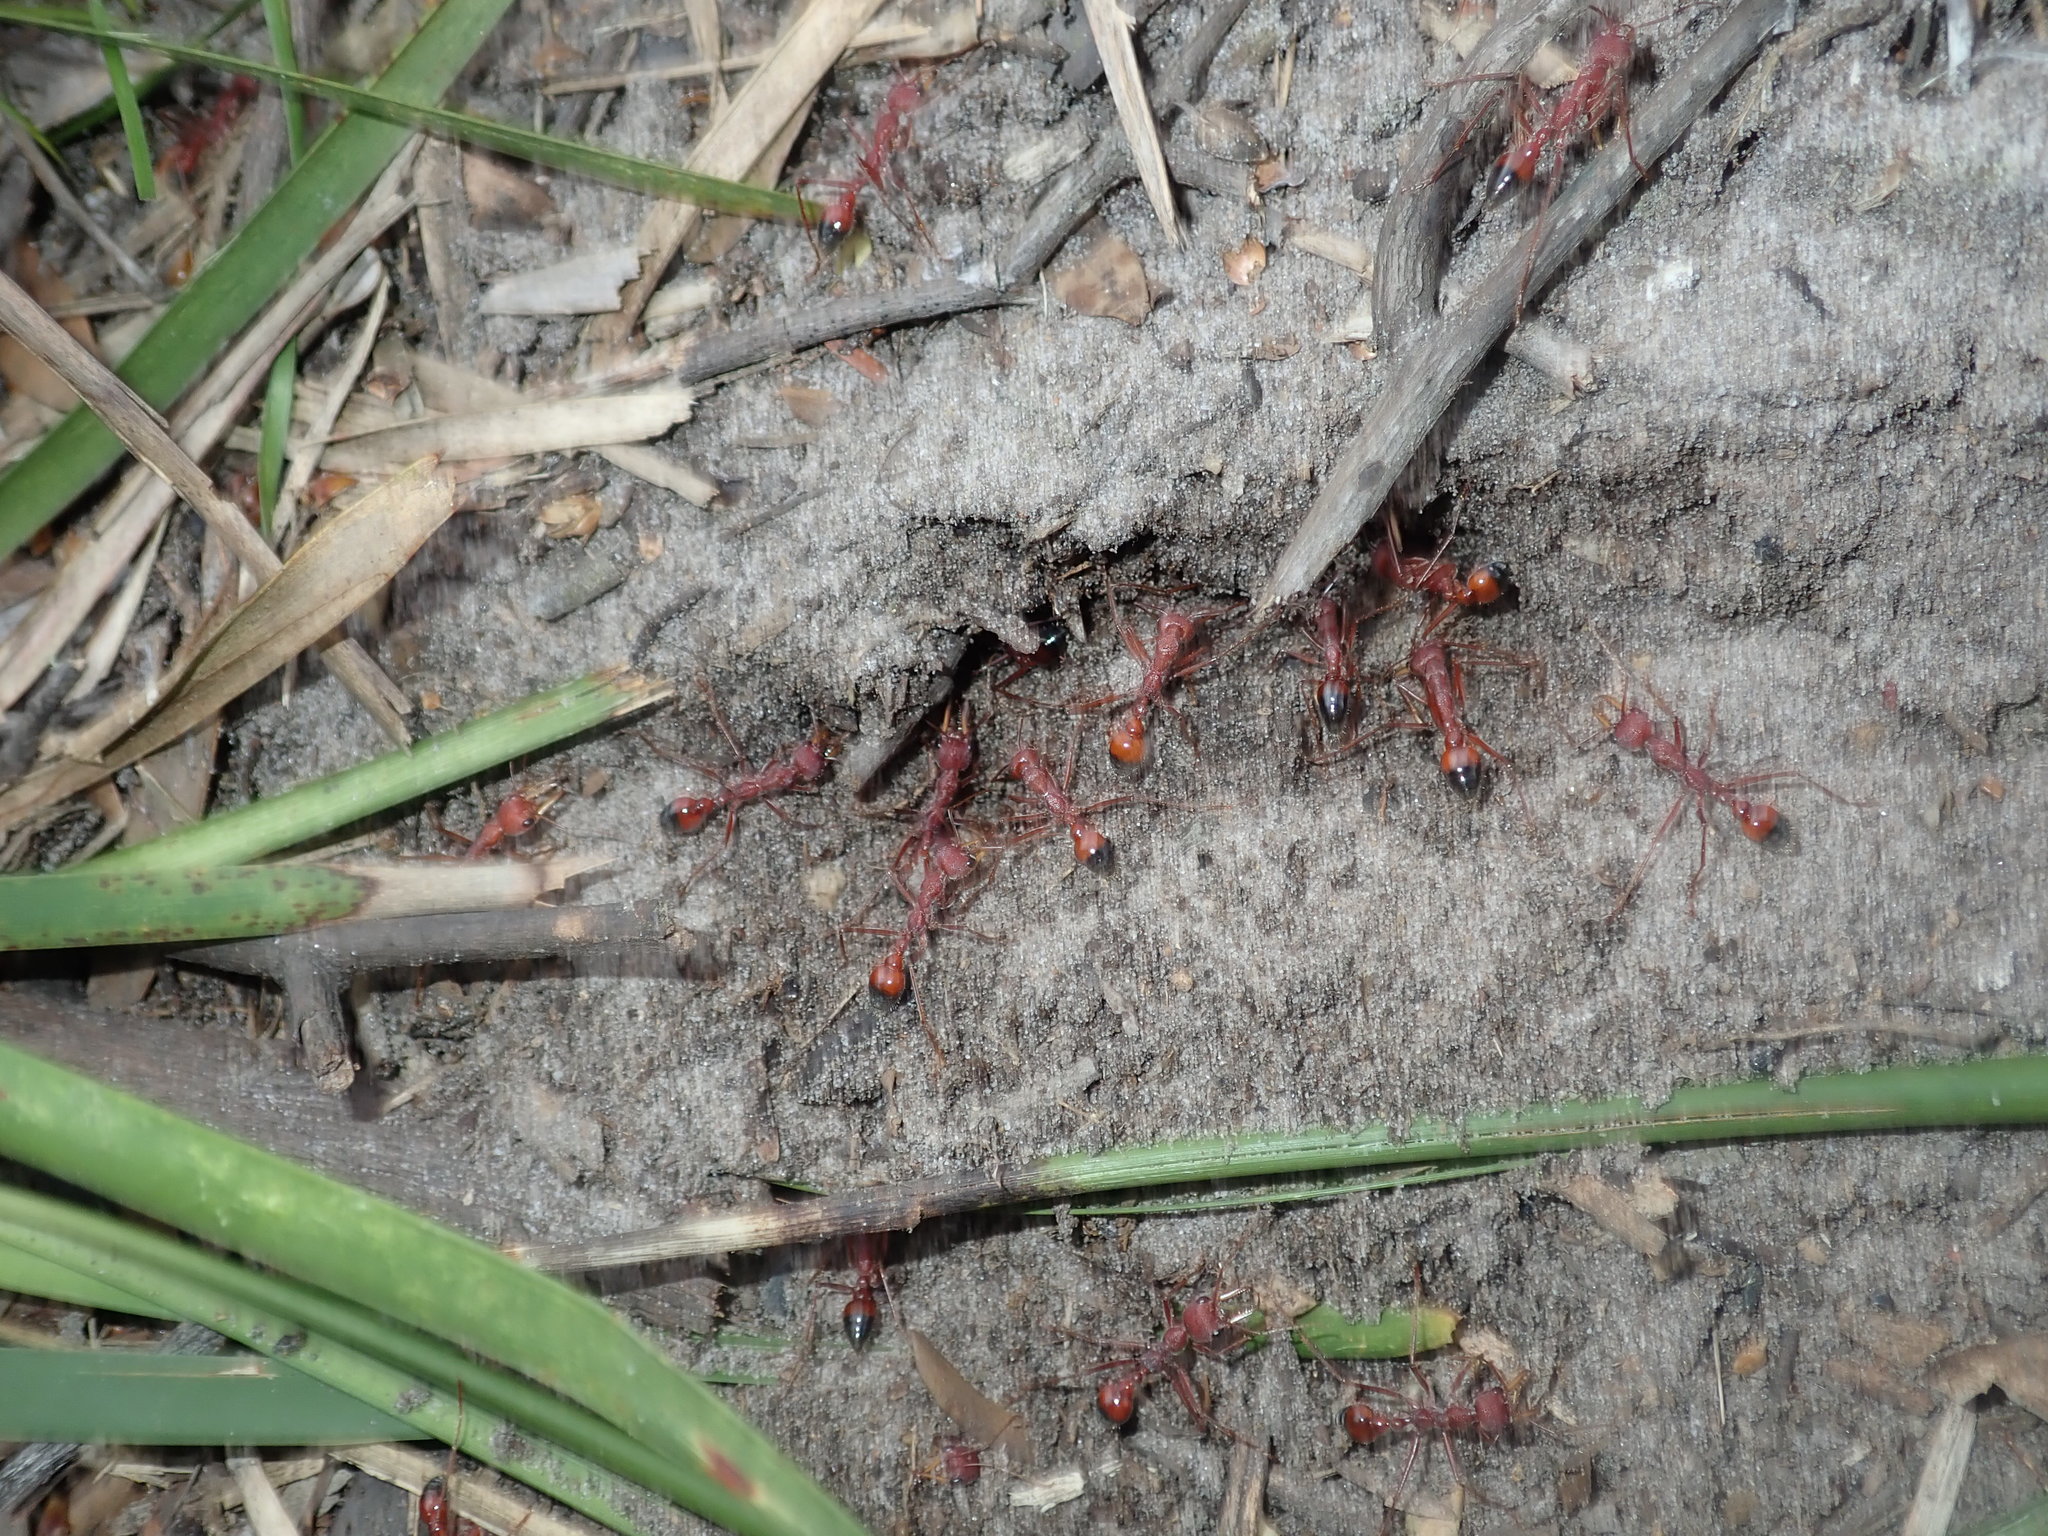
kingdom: Animalia
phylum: Arthropoda
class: Insecta
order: Hymenoptera
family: Formicidae
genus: Myrmecia
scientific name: Myrmecia gulosa
